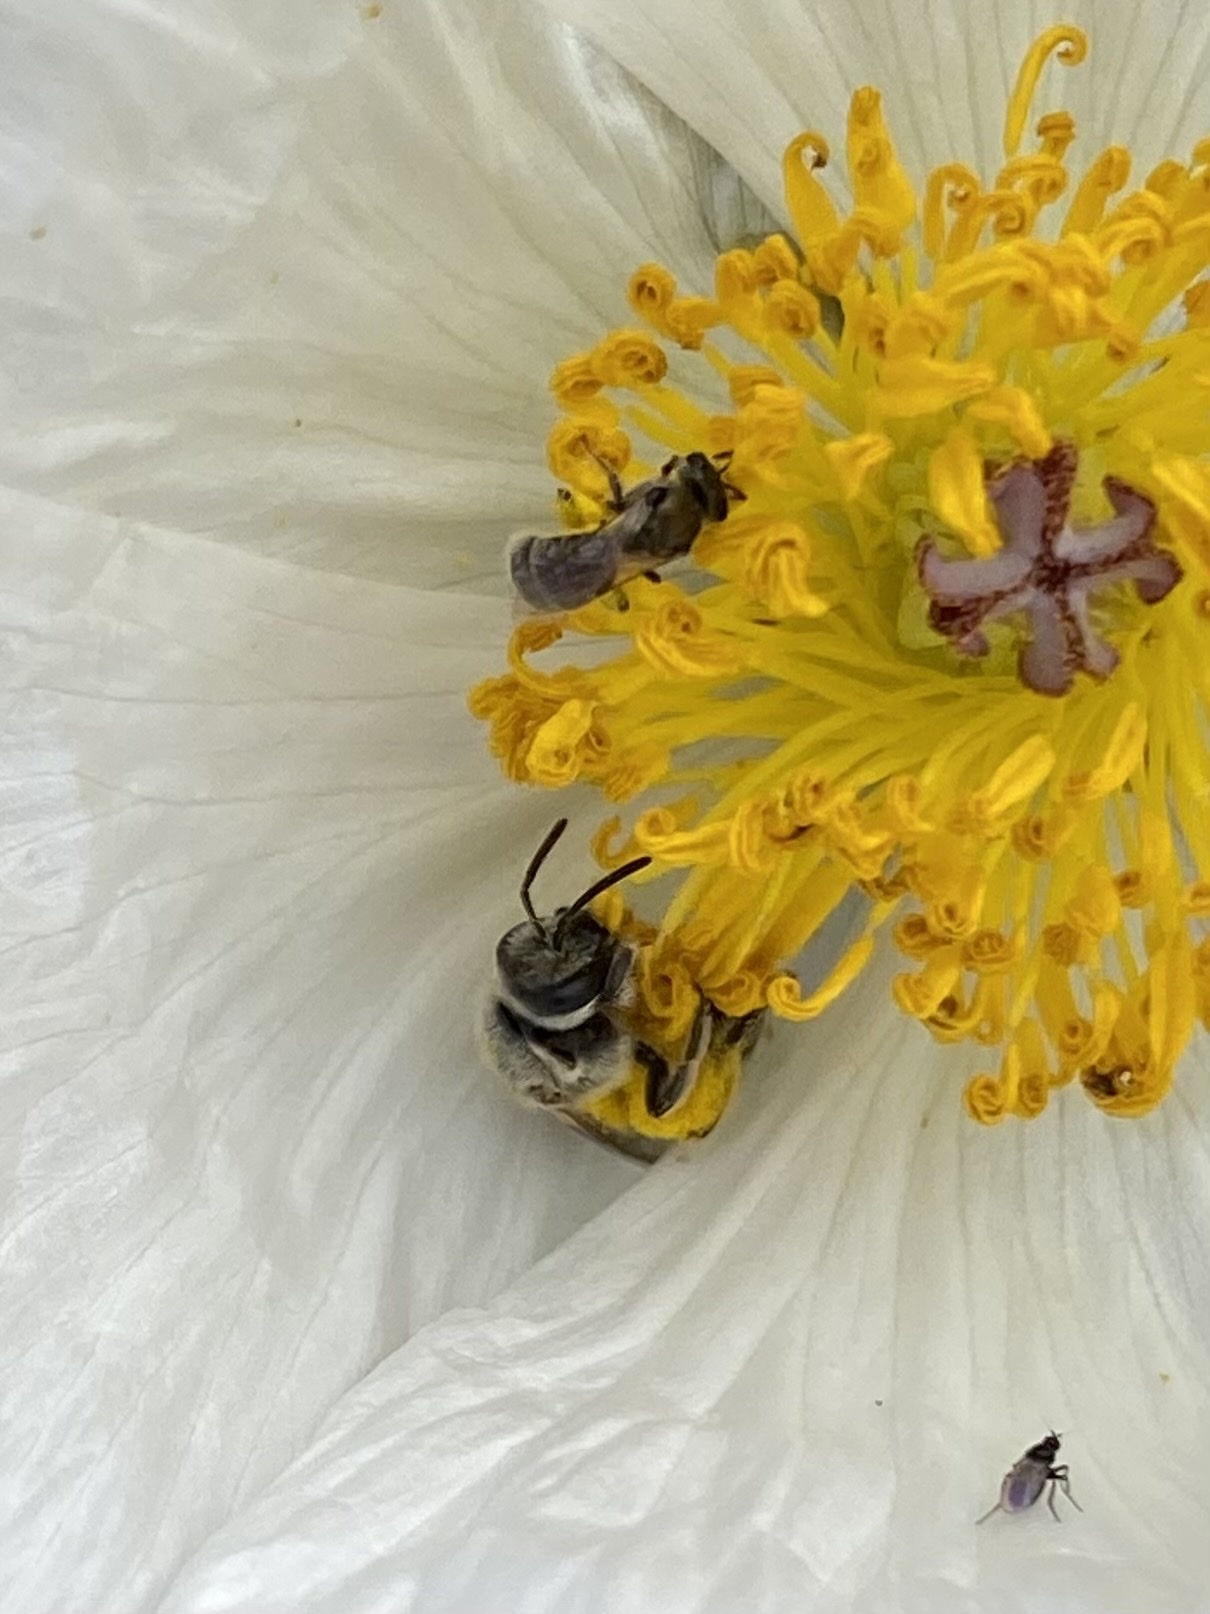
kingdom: Animalia
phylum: Arthropoda
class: Insecta
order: Hymenoptera
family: Halictidae
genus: Lasioglossum
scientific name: Lasioglossum sisymbrii
